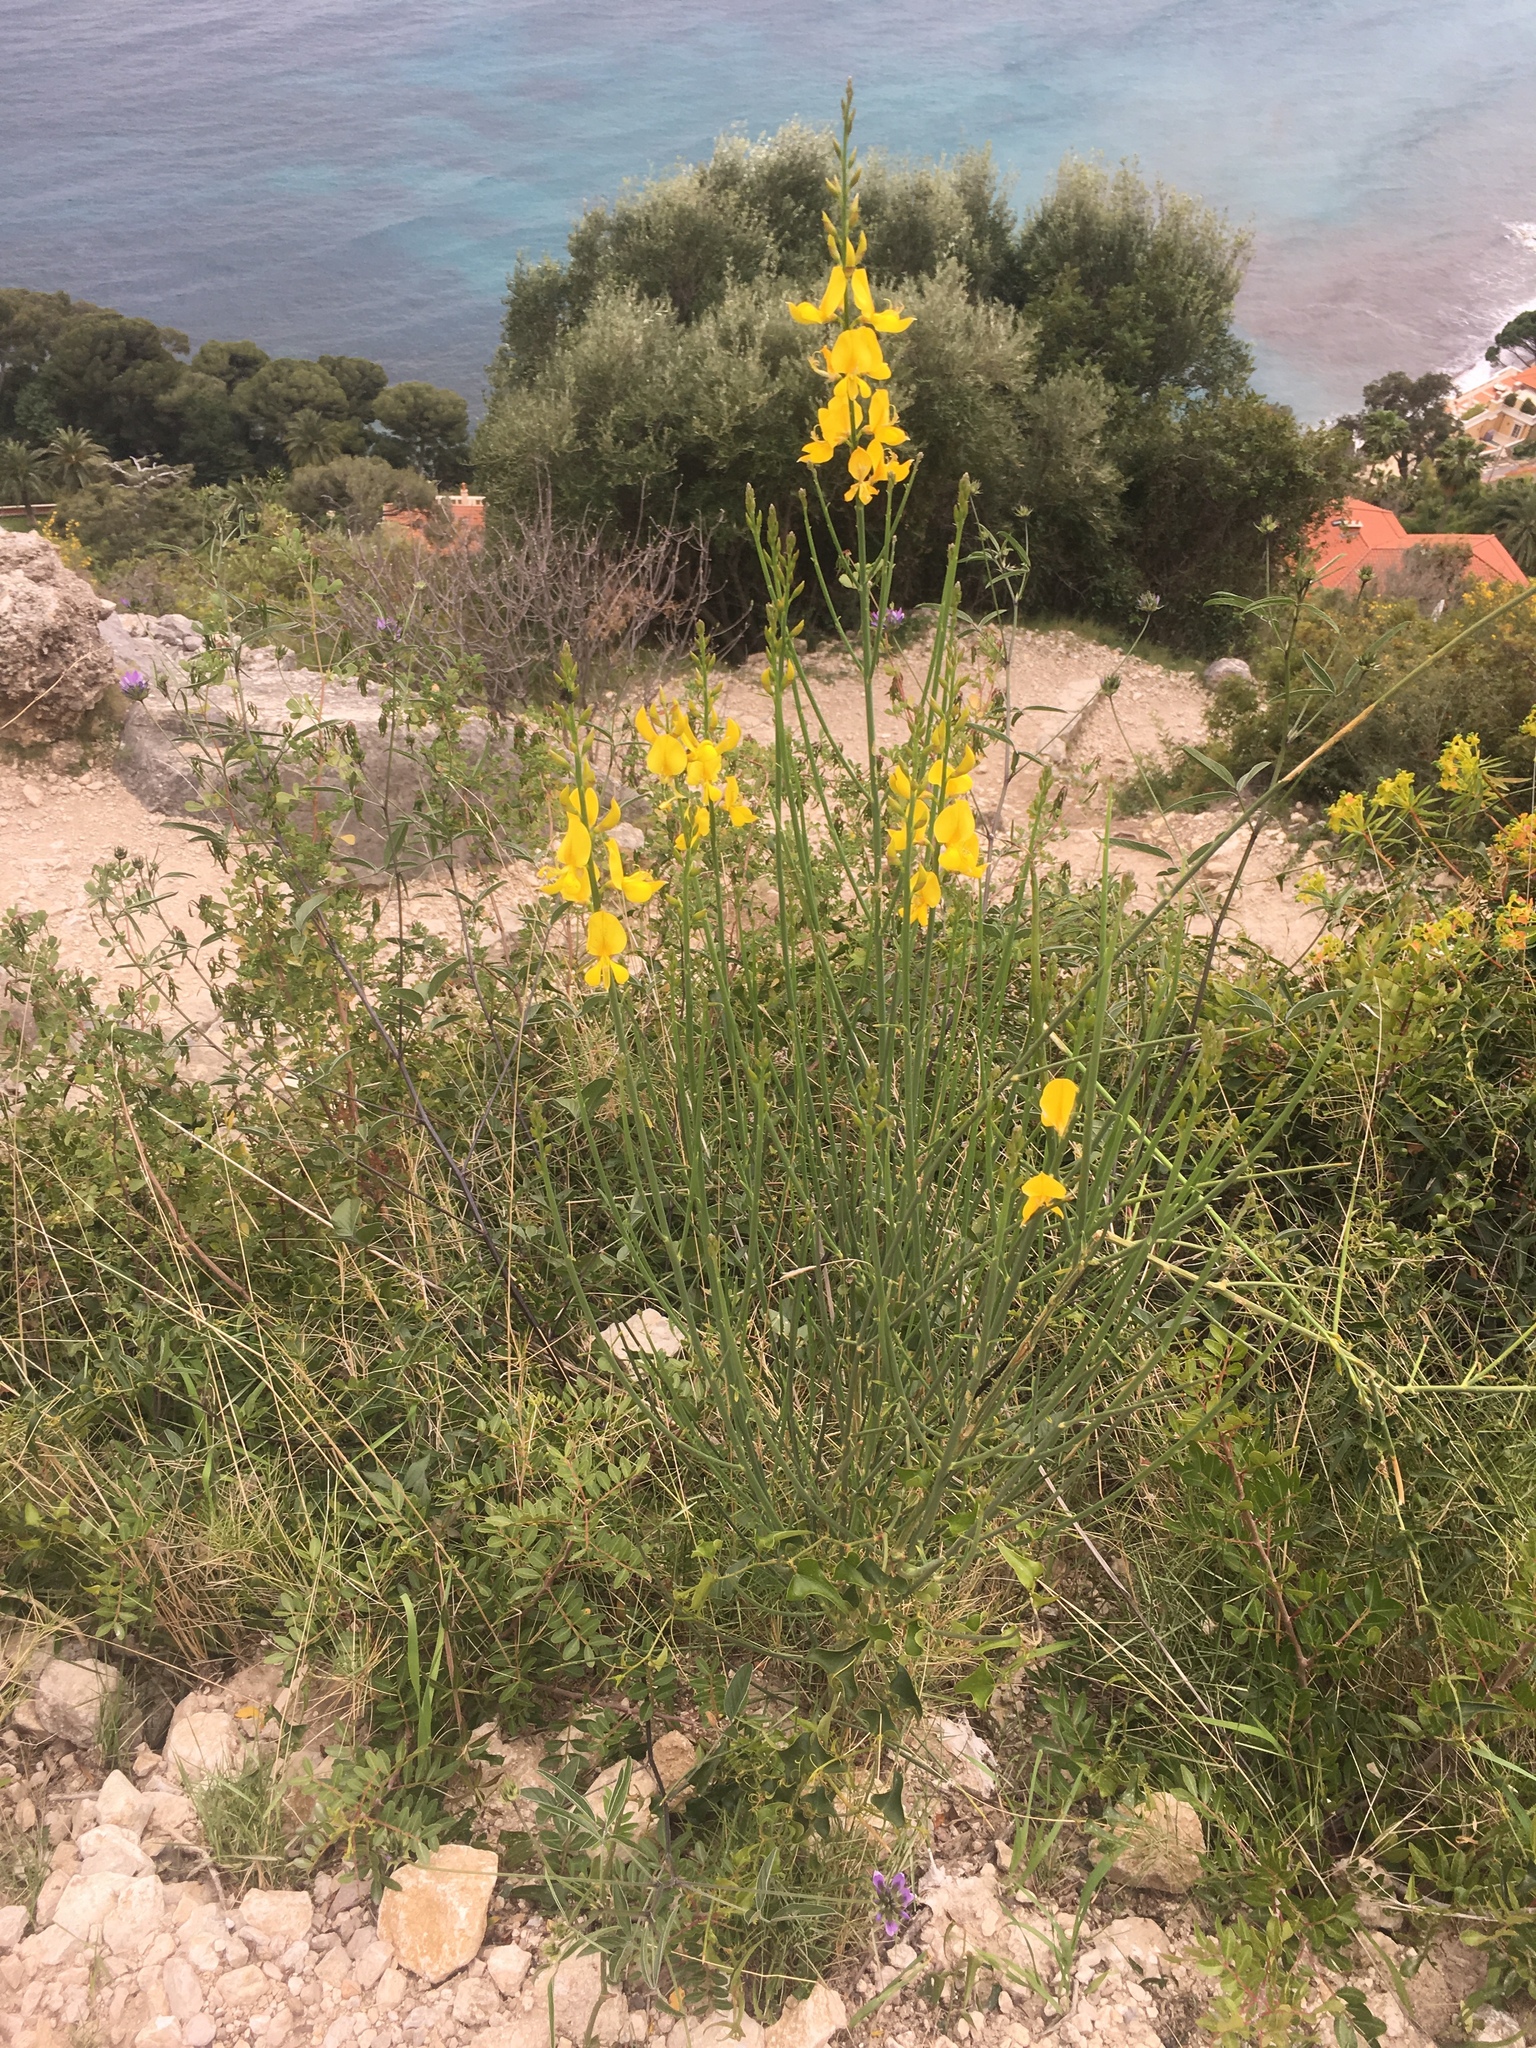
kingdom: Plantae
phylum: Tracheophyta
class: Magnoliopsida
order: Fabales
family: Fabaceae
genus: Spartium
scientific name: Spartium junceum
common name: Spanish broom
